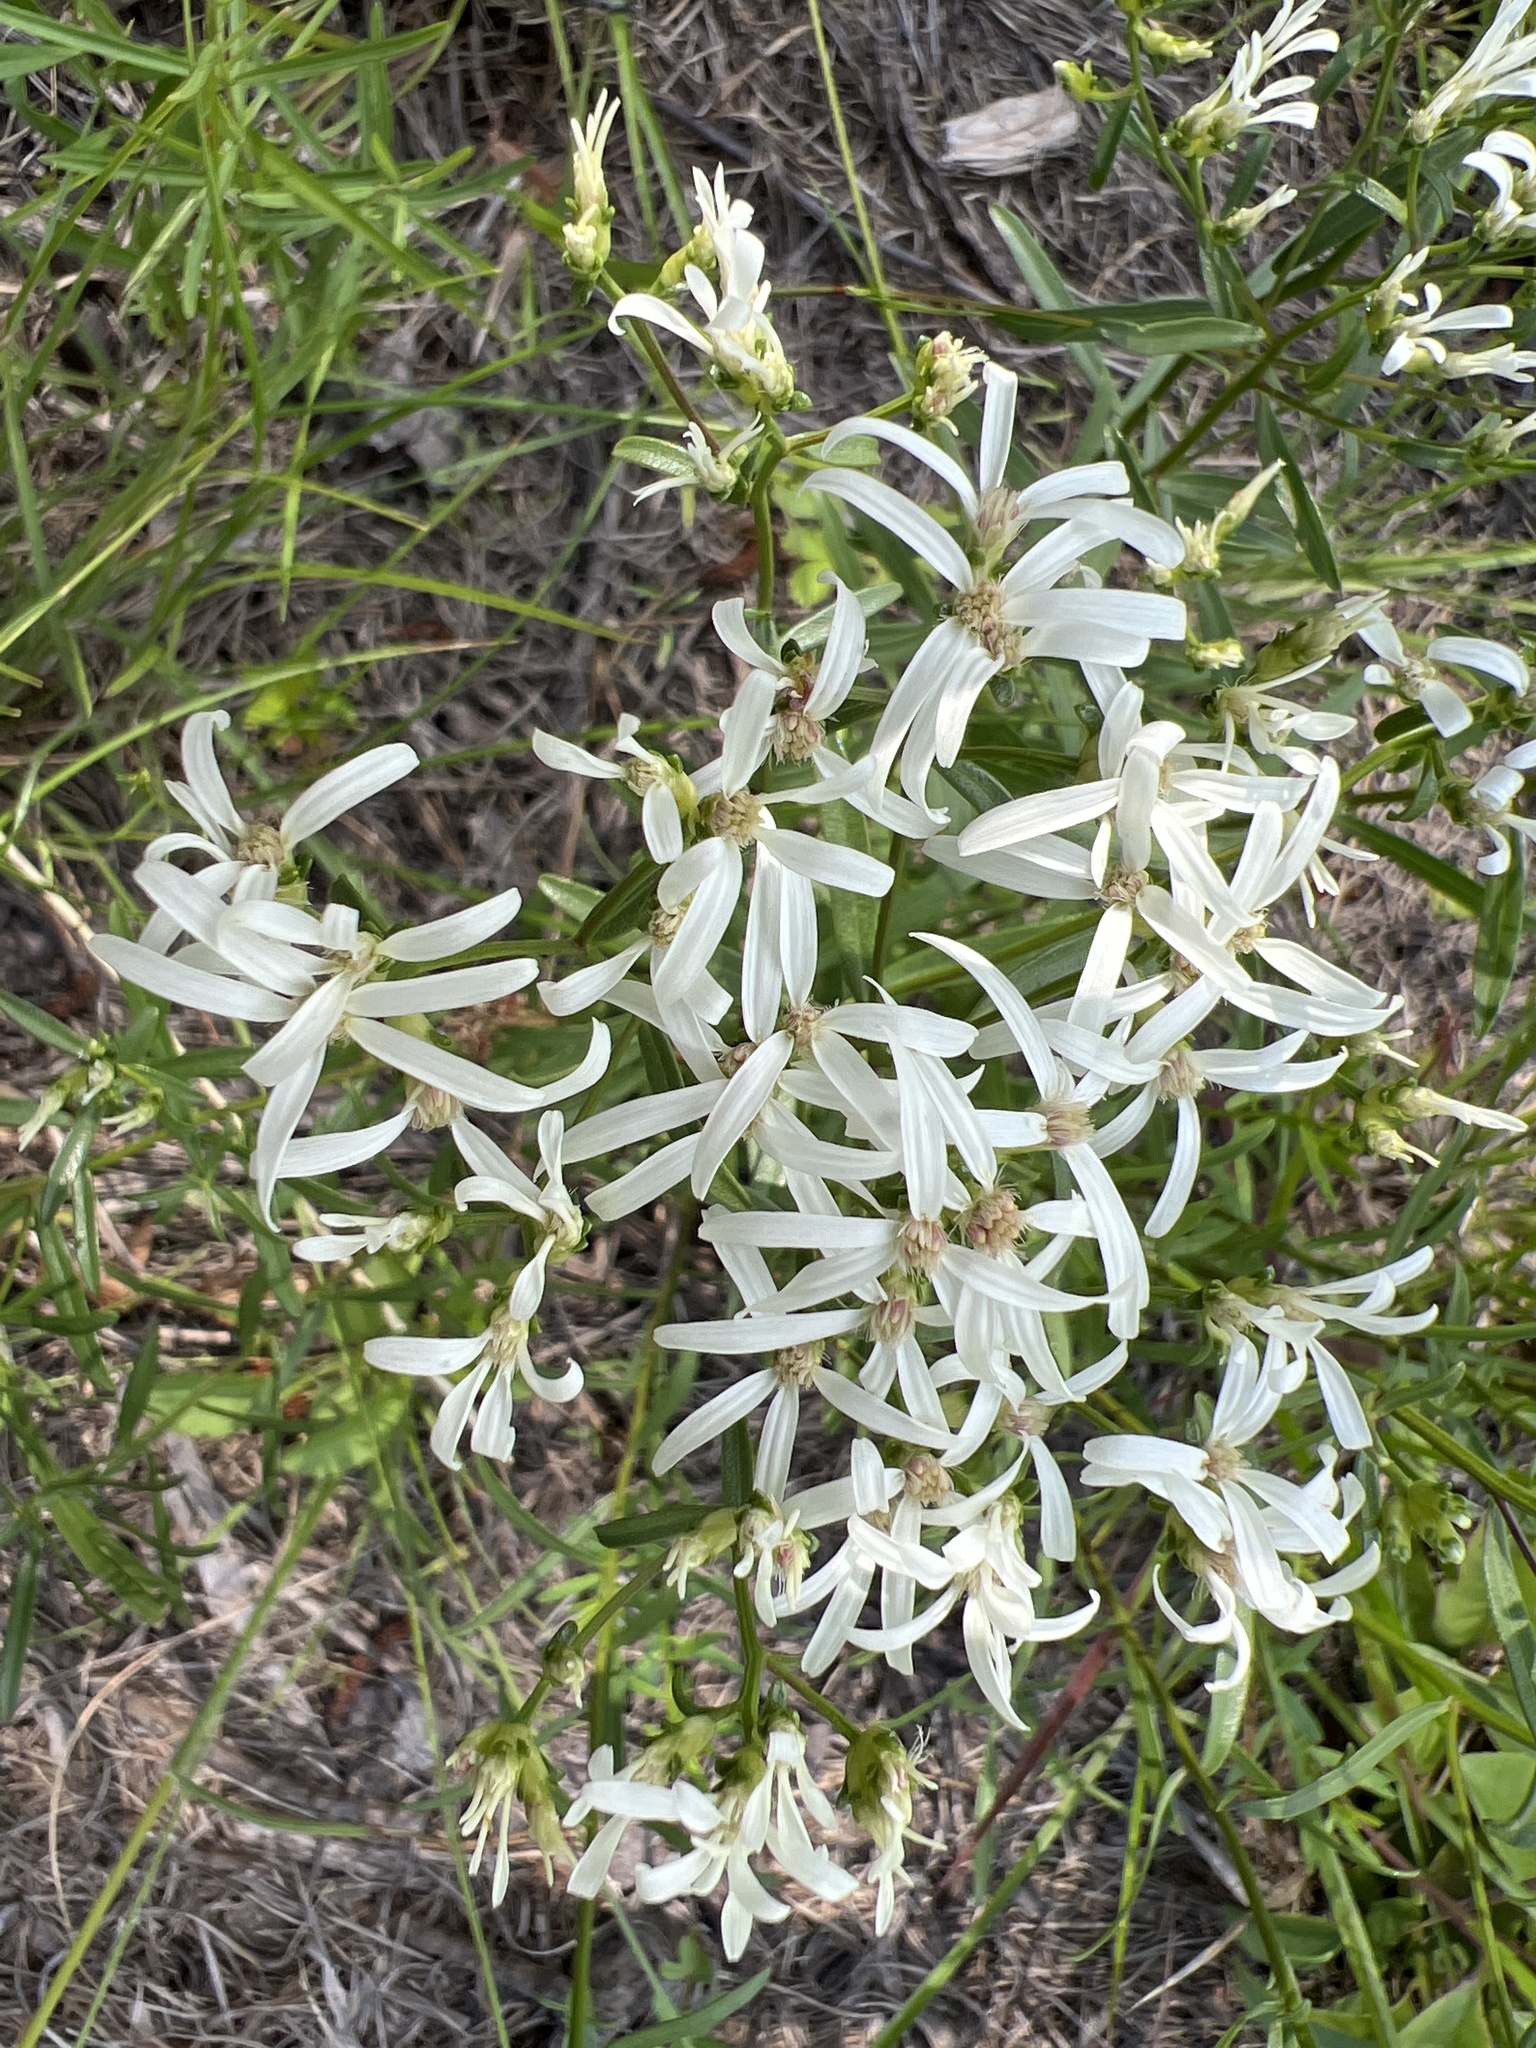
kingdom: Plantae
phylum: Tracheophyta
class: Magnoliopsida
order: Asterales
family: Asteraceae
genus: Sericocarpus
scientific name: Sericocarpus linifolius
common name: Narrow-leaf aster
